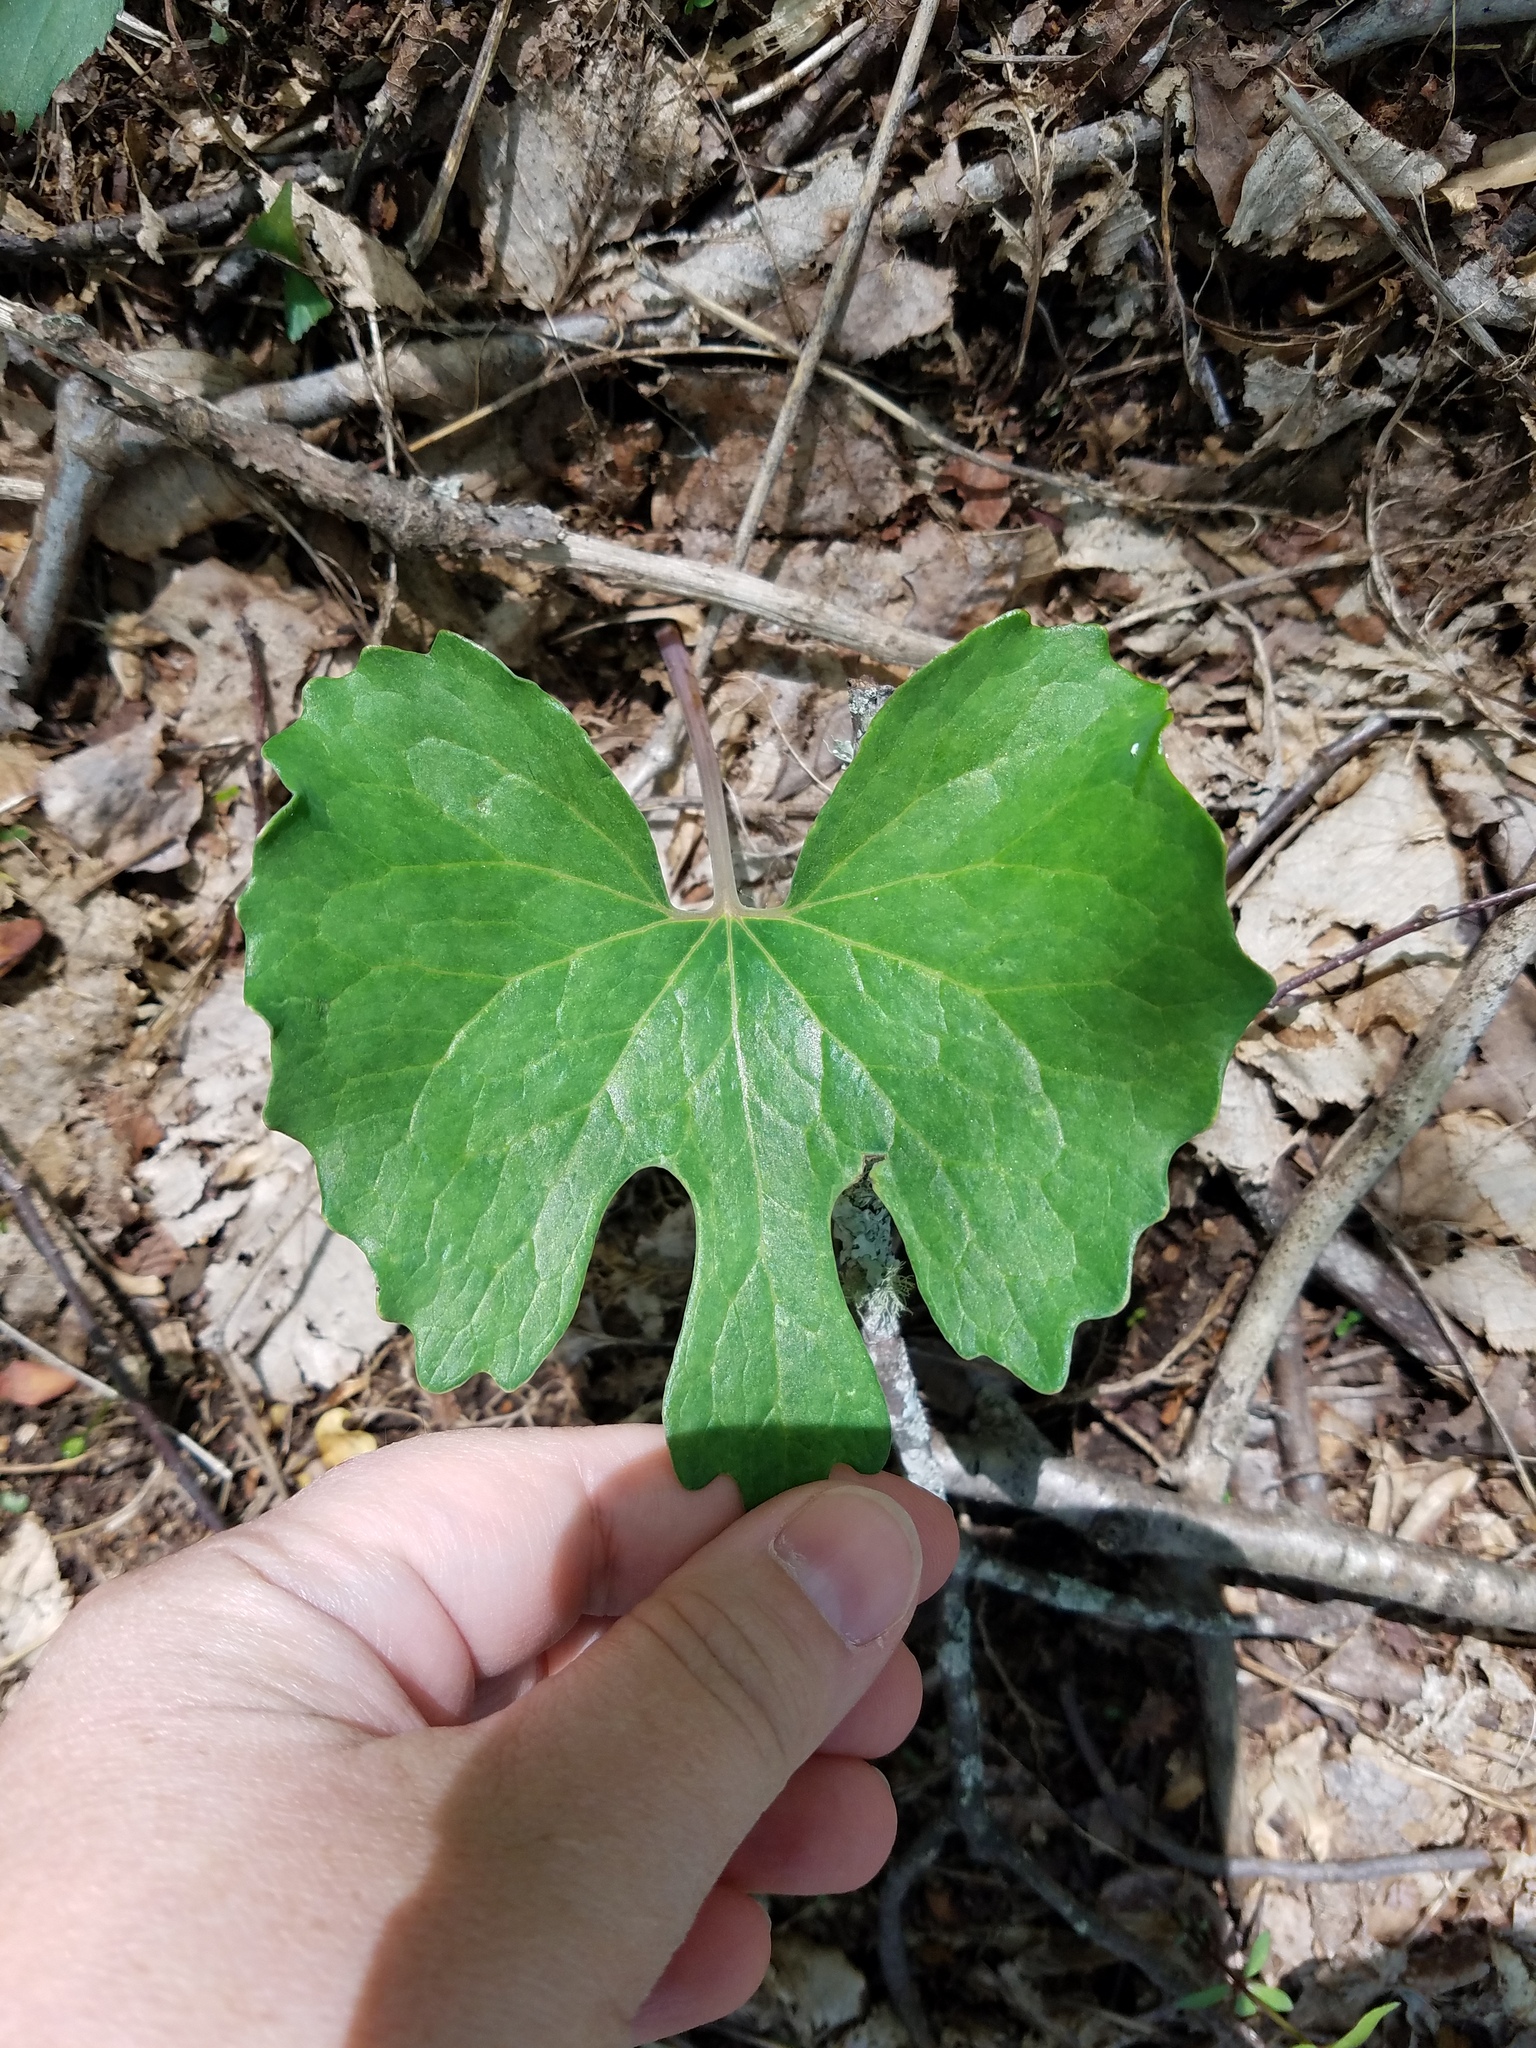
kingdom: Plantae
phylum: Tracheophyta
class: Magnoliopsida
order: Ranunculales
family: Papaveraceae
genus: Sanguinaria
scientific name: Sanguinaria canadensis
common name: Bloodroot
